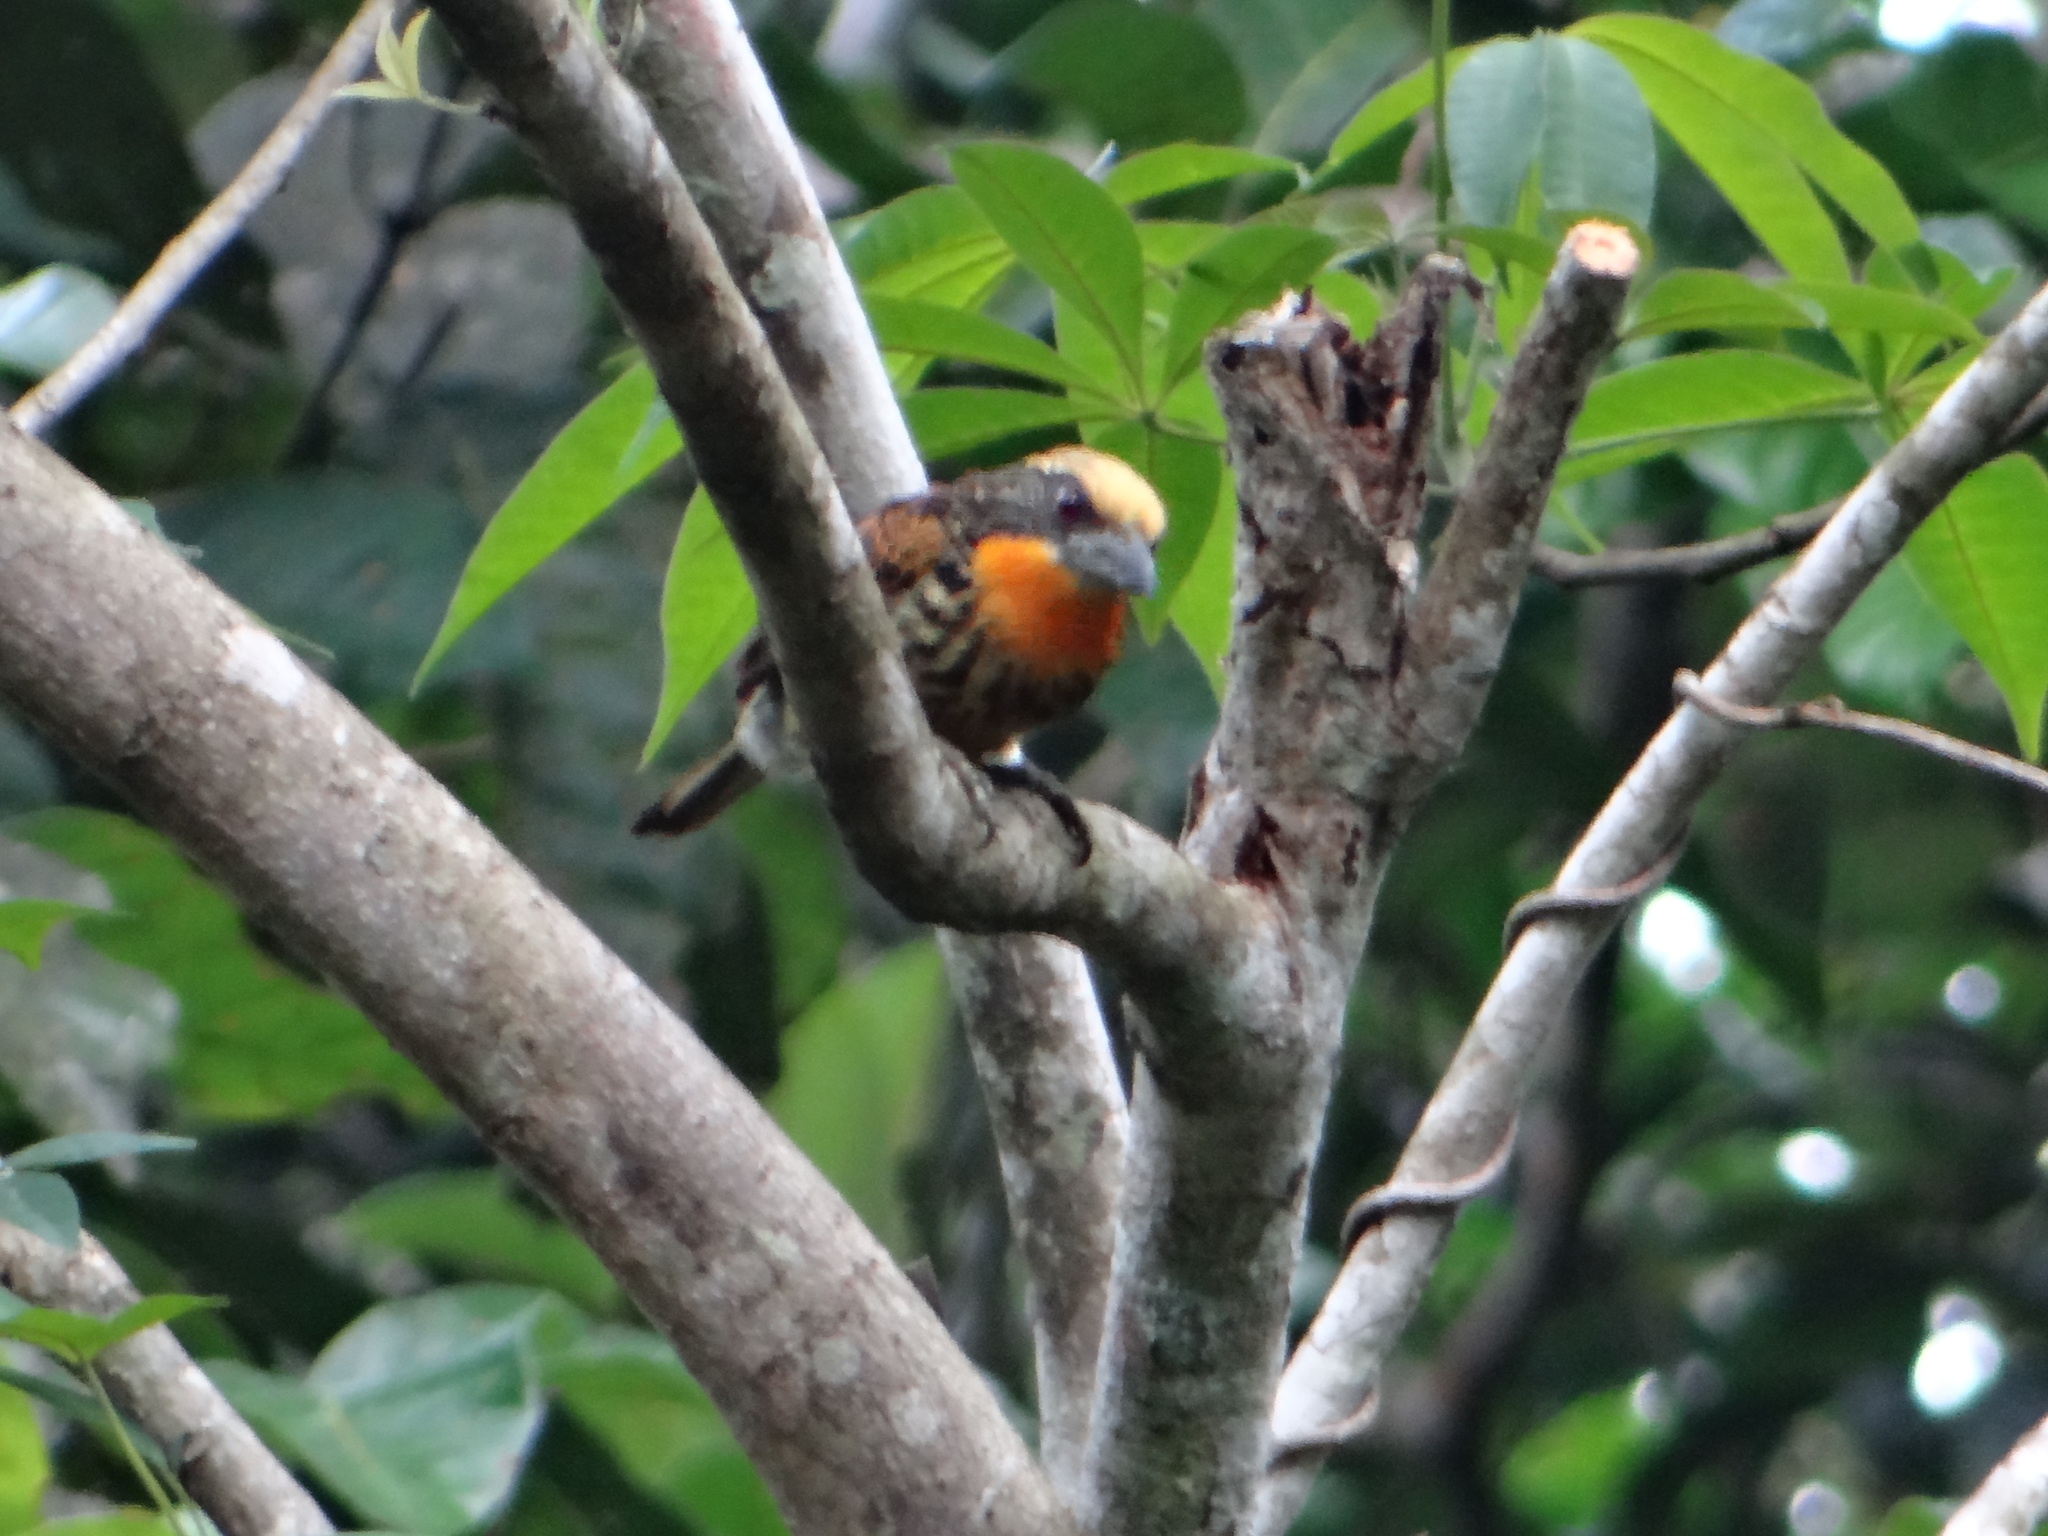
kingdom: Animalia
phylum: Chordata
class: Aves
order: Piciformes
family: Capitonidae
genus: Capito
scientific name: Capito auratus
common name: Gilded barbet
